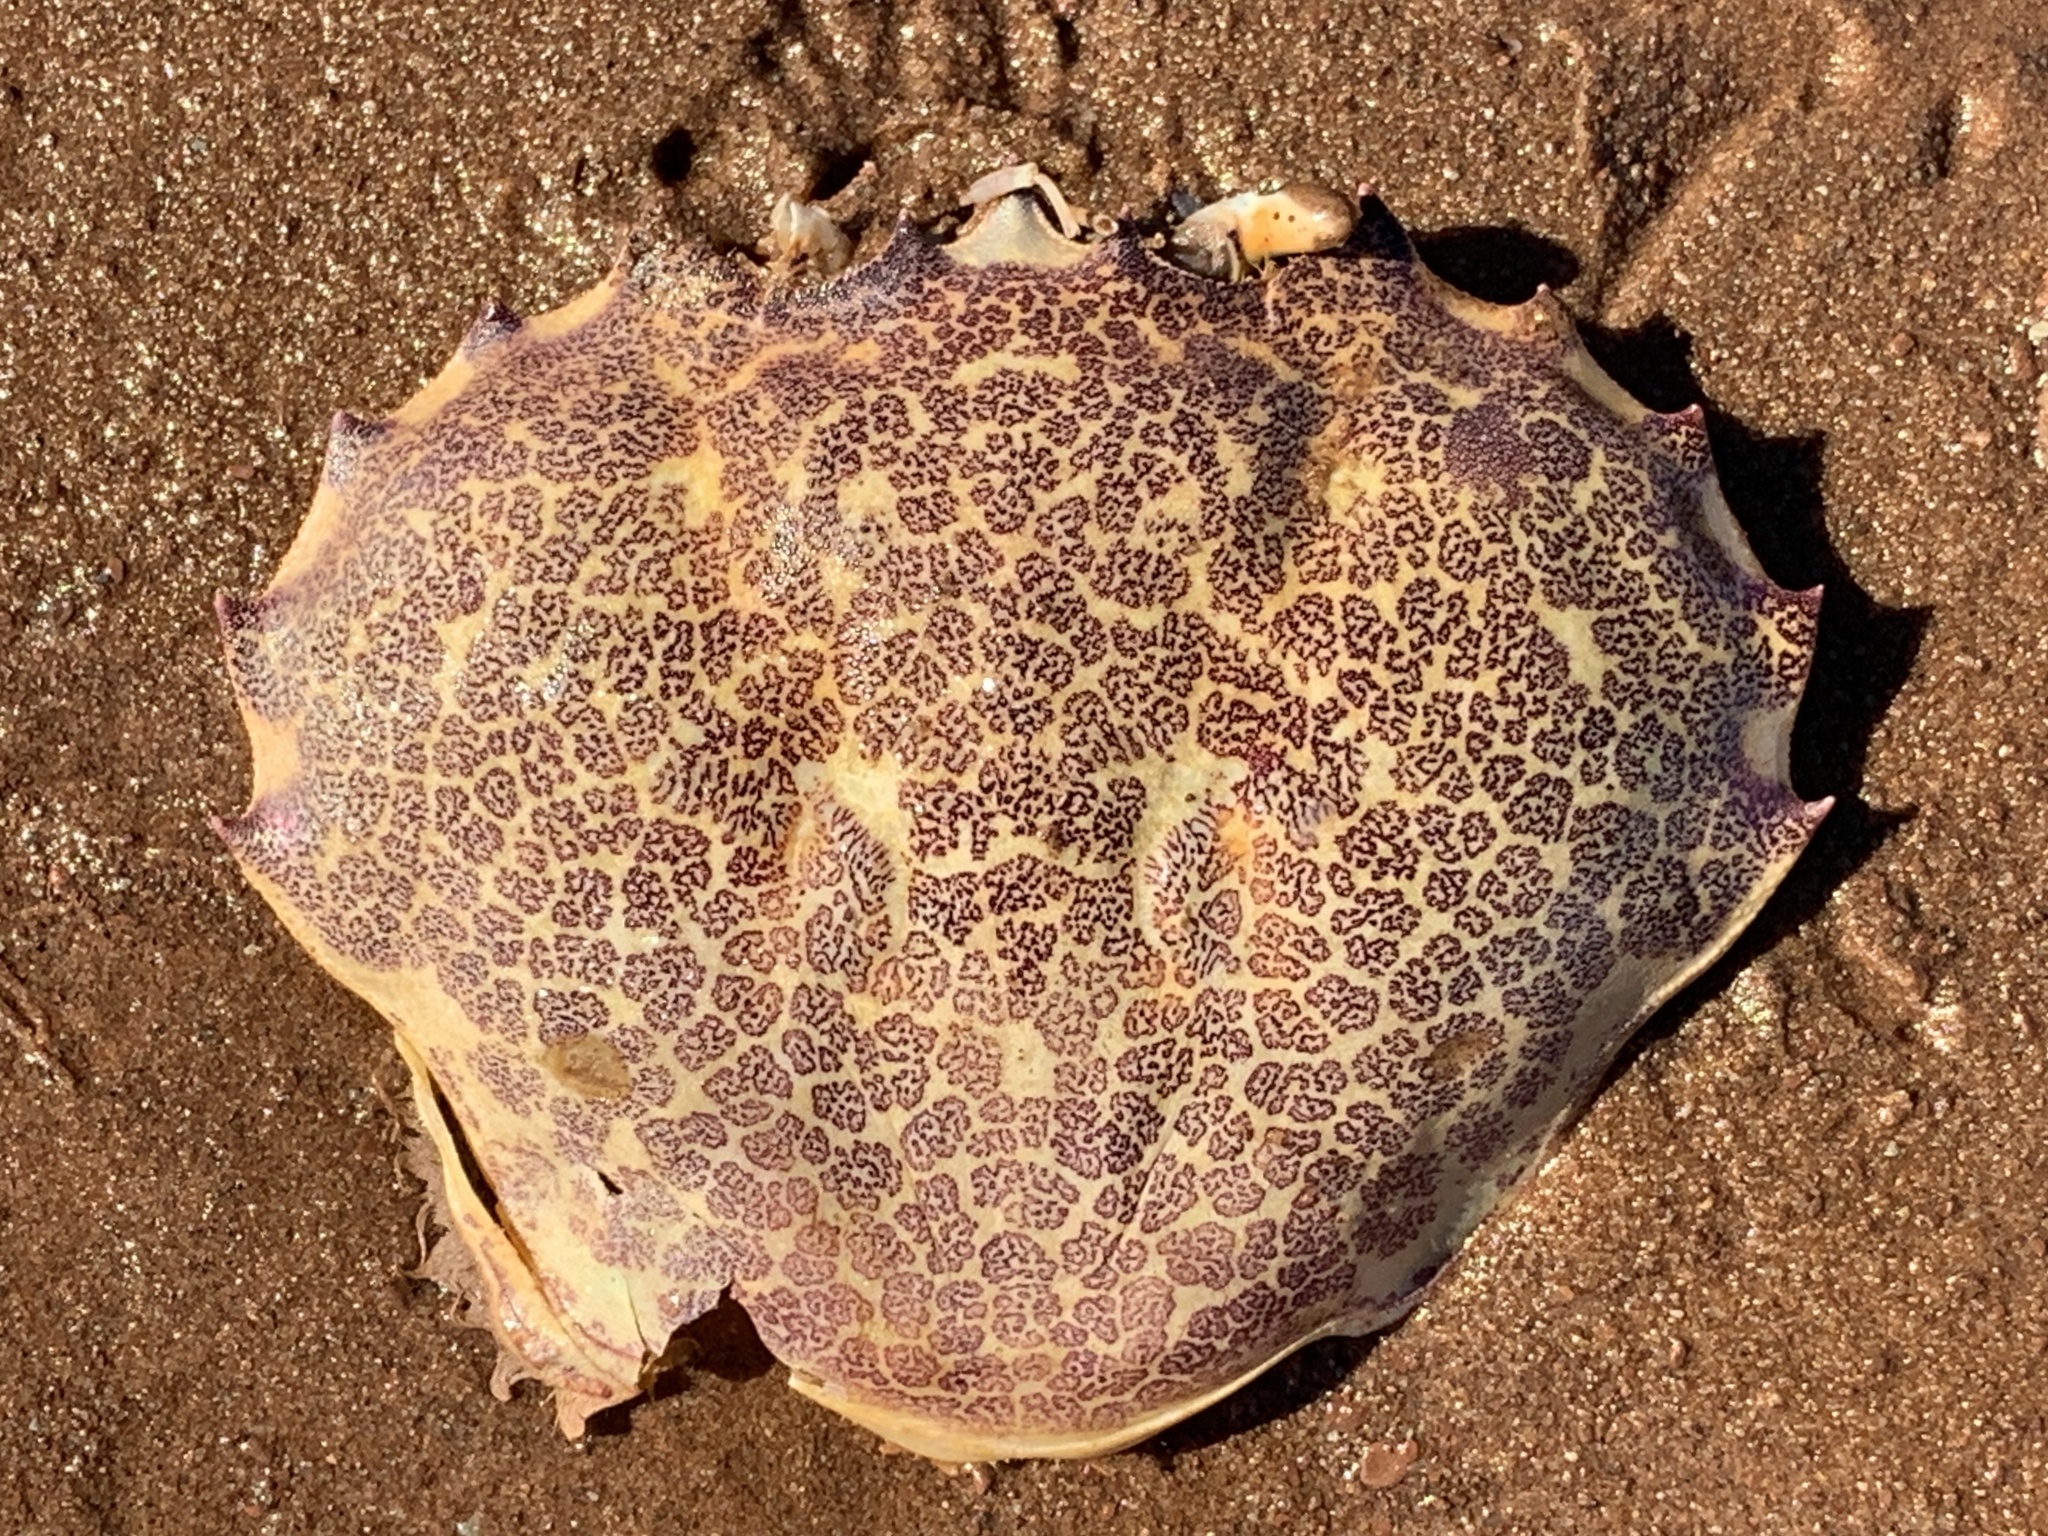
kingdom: Animalia
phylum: Arthropoda
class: Malacostraca
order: Decapoda
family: Ovalipidae
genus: Ovalipes
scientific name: Ovalipes ocellatus
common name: Lady crab
